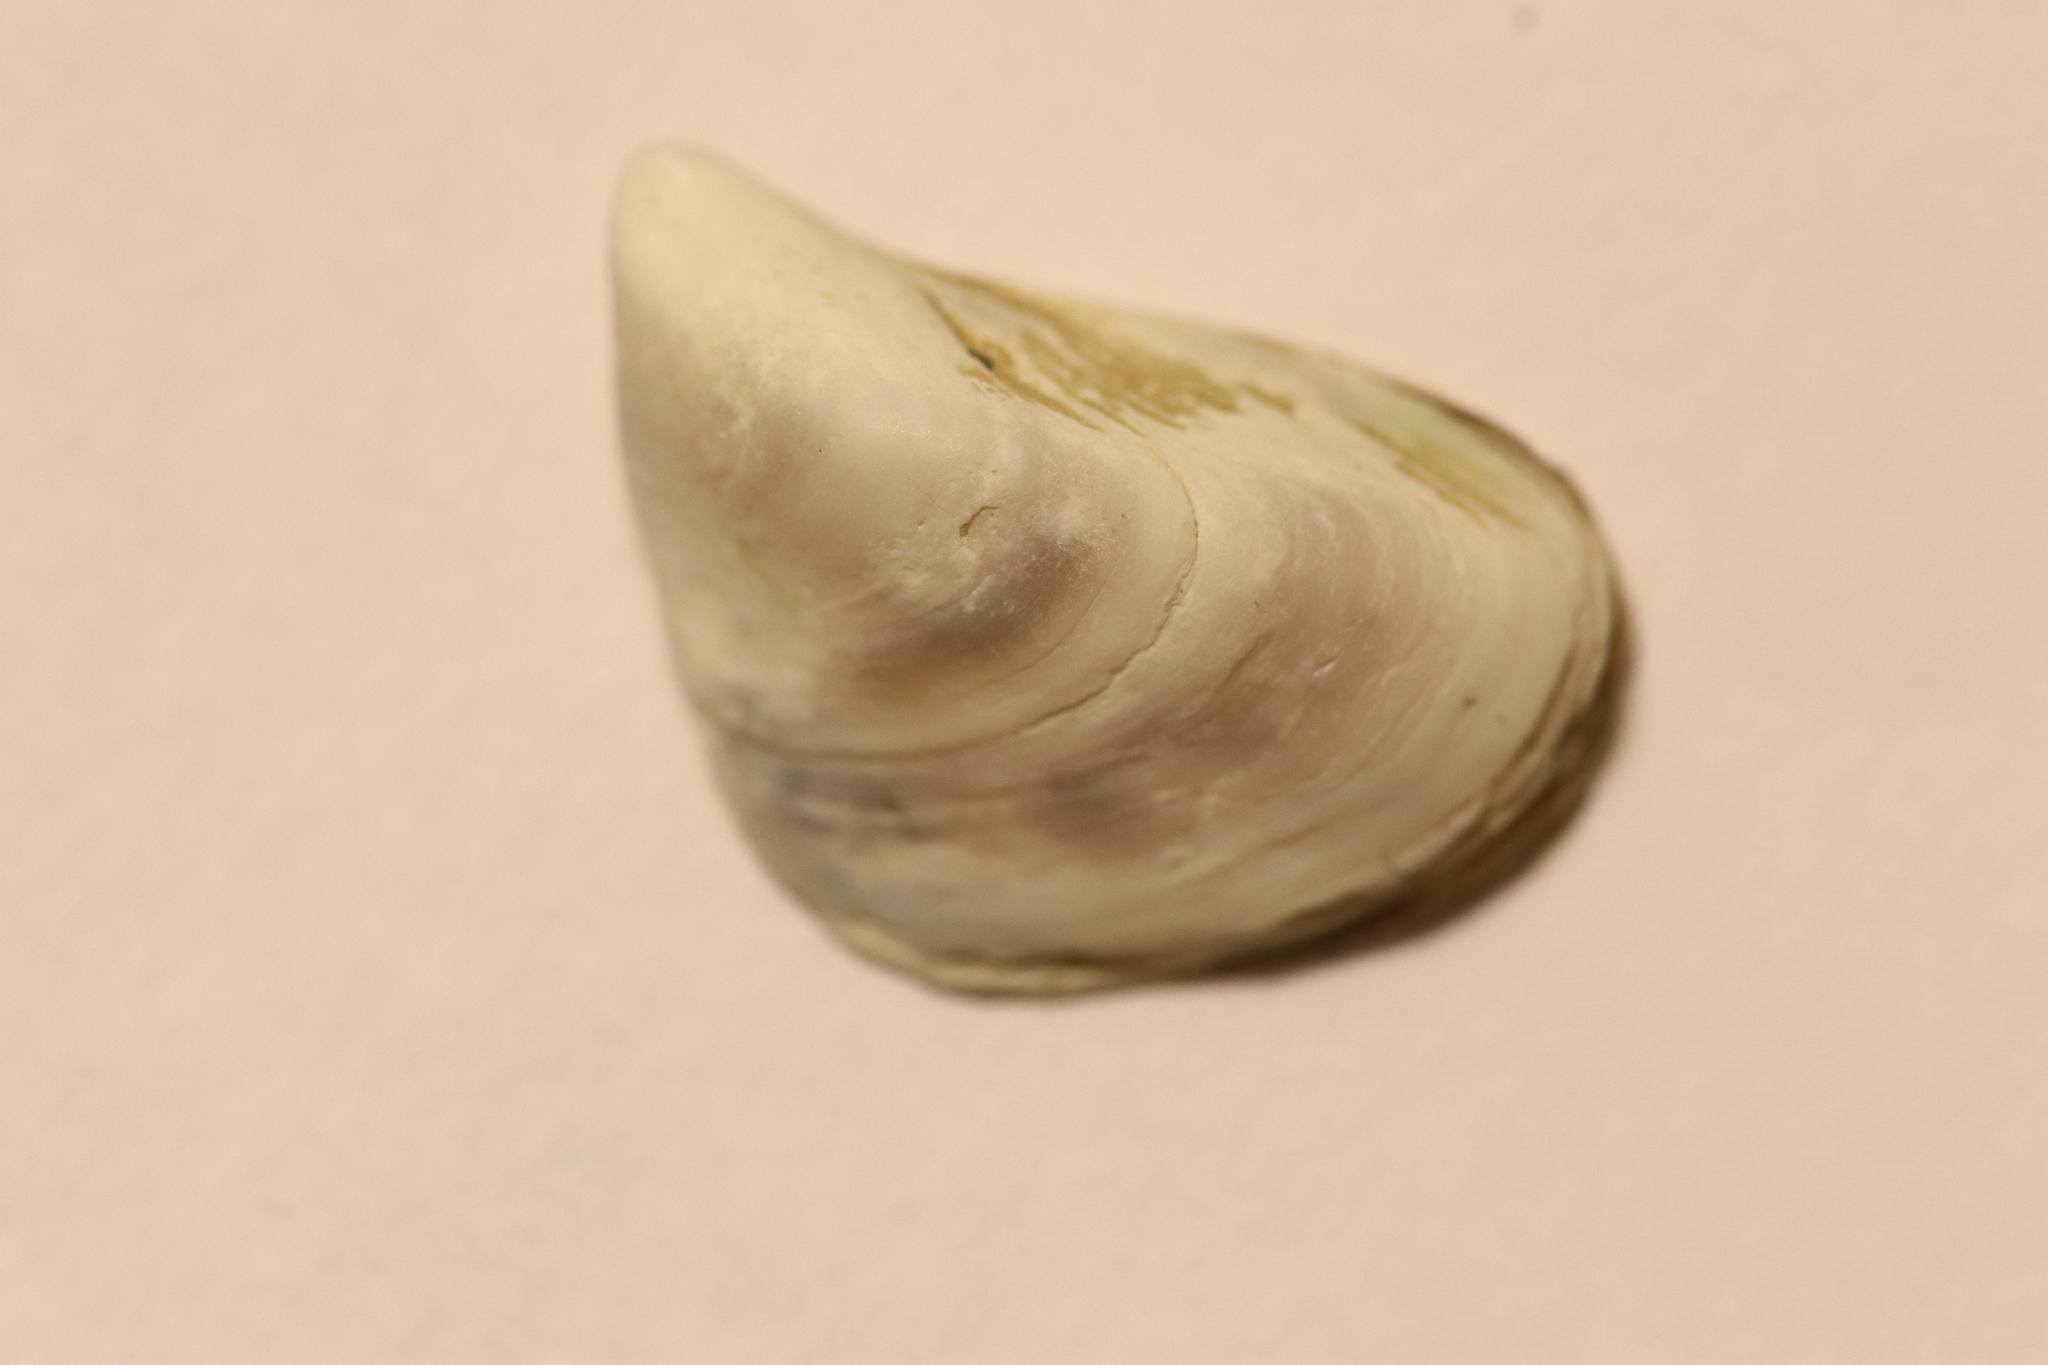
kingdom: Animalia
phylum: Mollusca
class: Bivalvia
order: Myida
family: Dreissenidae
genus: Dreissena
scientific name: Dreissena bugensis
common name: Quagga mussel
